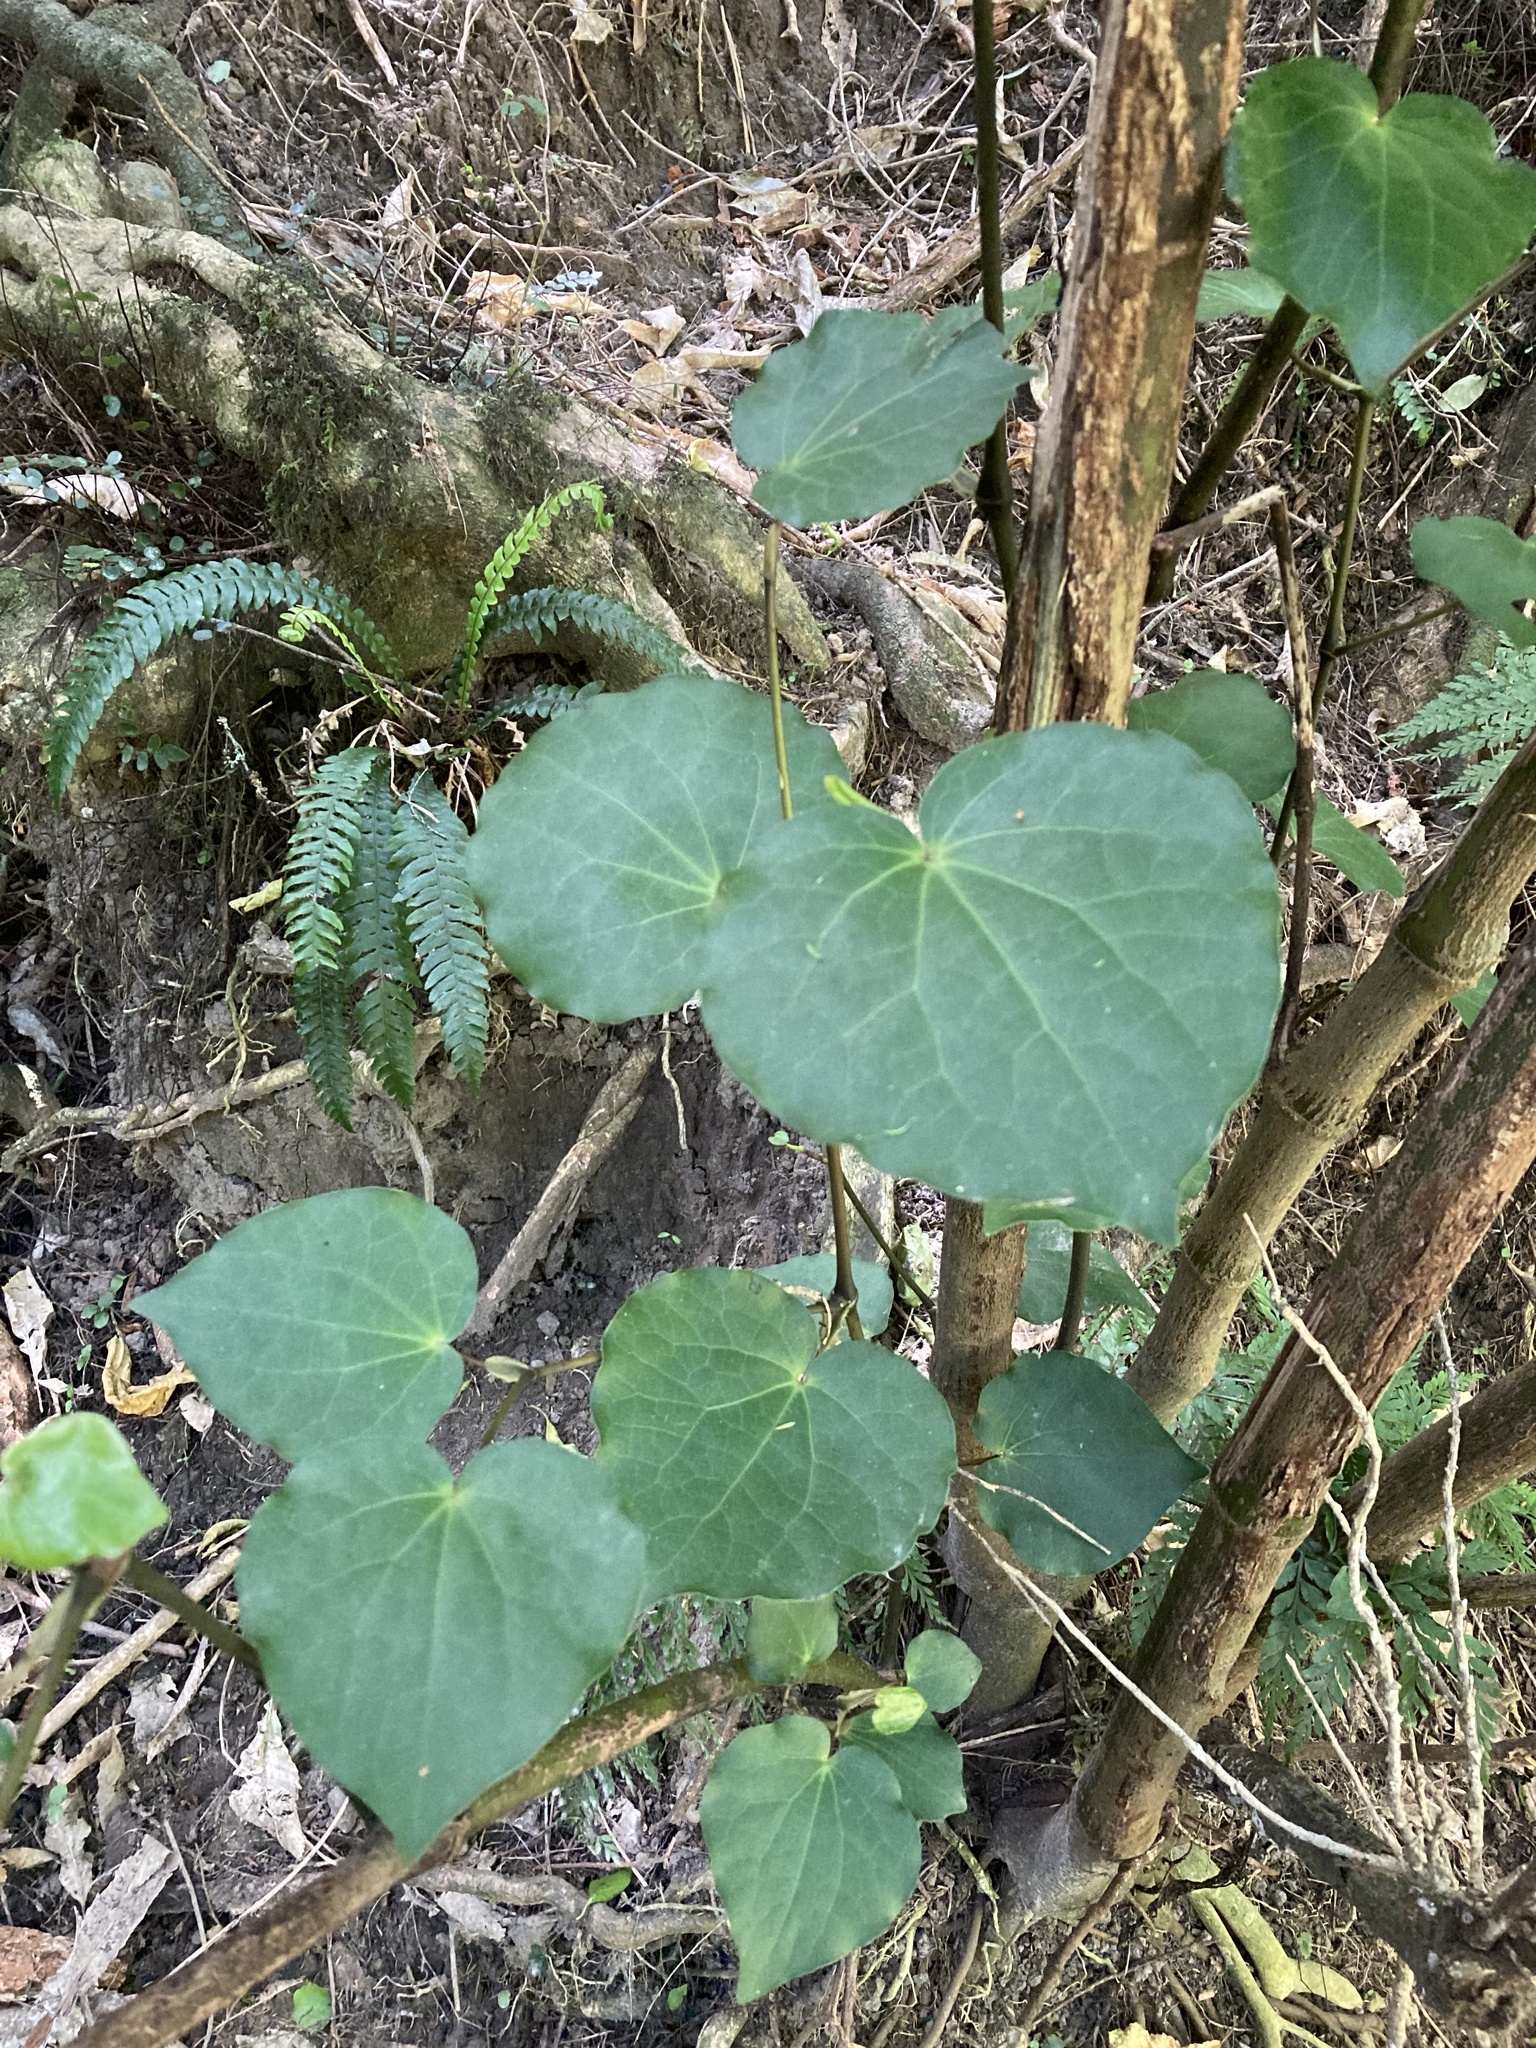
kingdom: Plantae
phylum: Tracheophyta
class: Magnoliopsida
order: Piperales
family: Piperaceae
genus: Macropiper
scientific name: Macropiper excelsum
